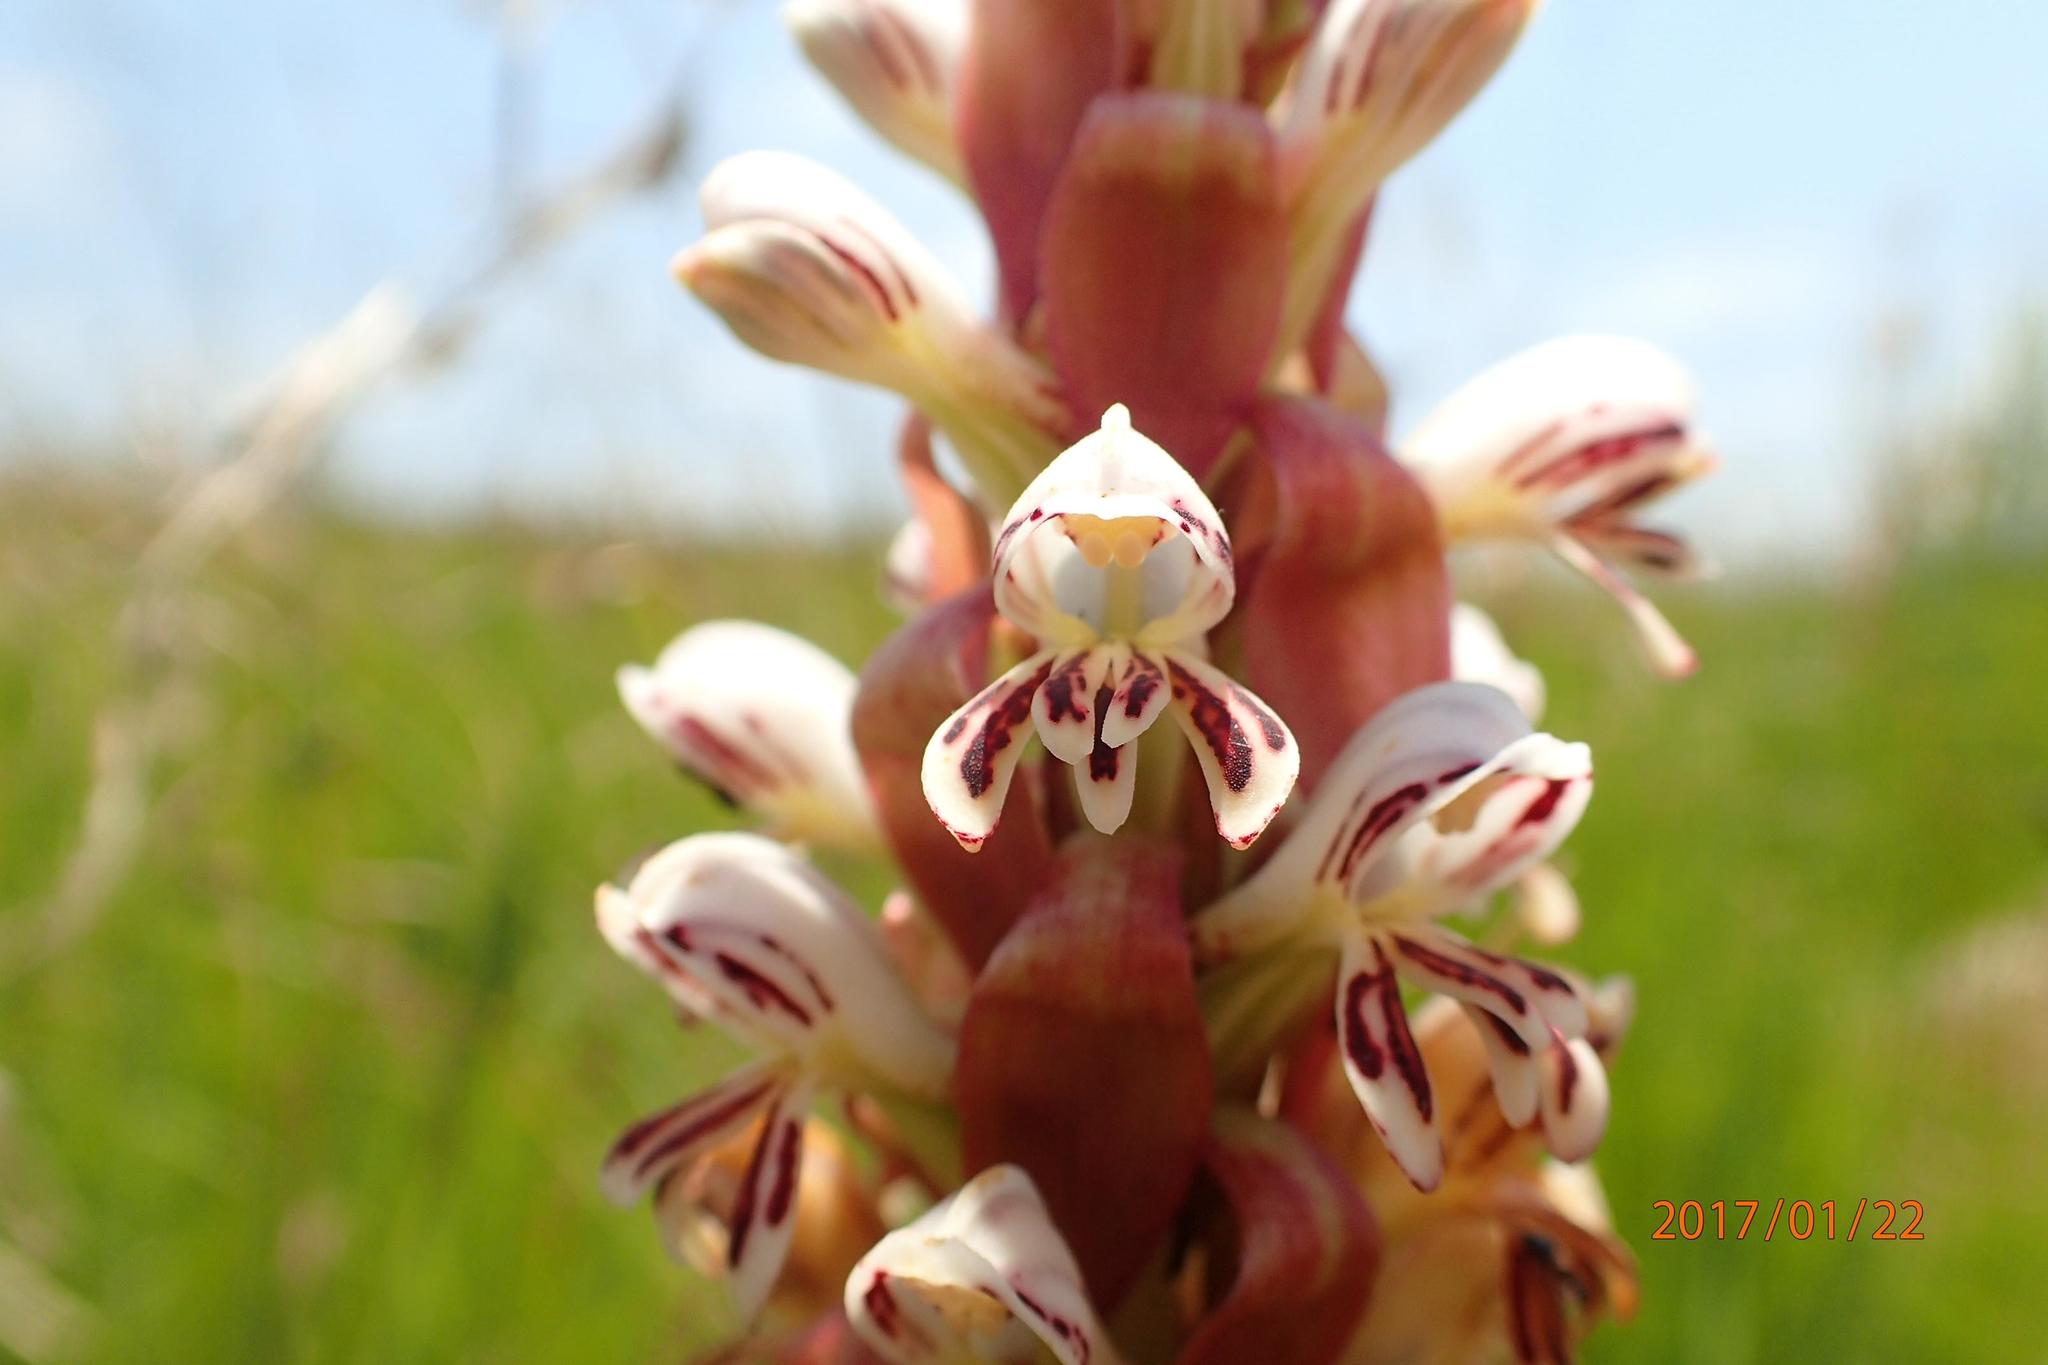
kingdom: Plantae
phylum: Tracheophyta
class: Liliopsida
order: Asparagales
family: Orchidaceae
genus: Satyrium
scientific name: Satyrium cristatum
